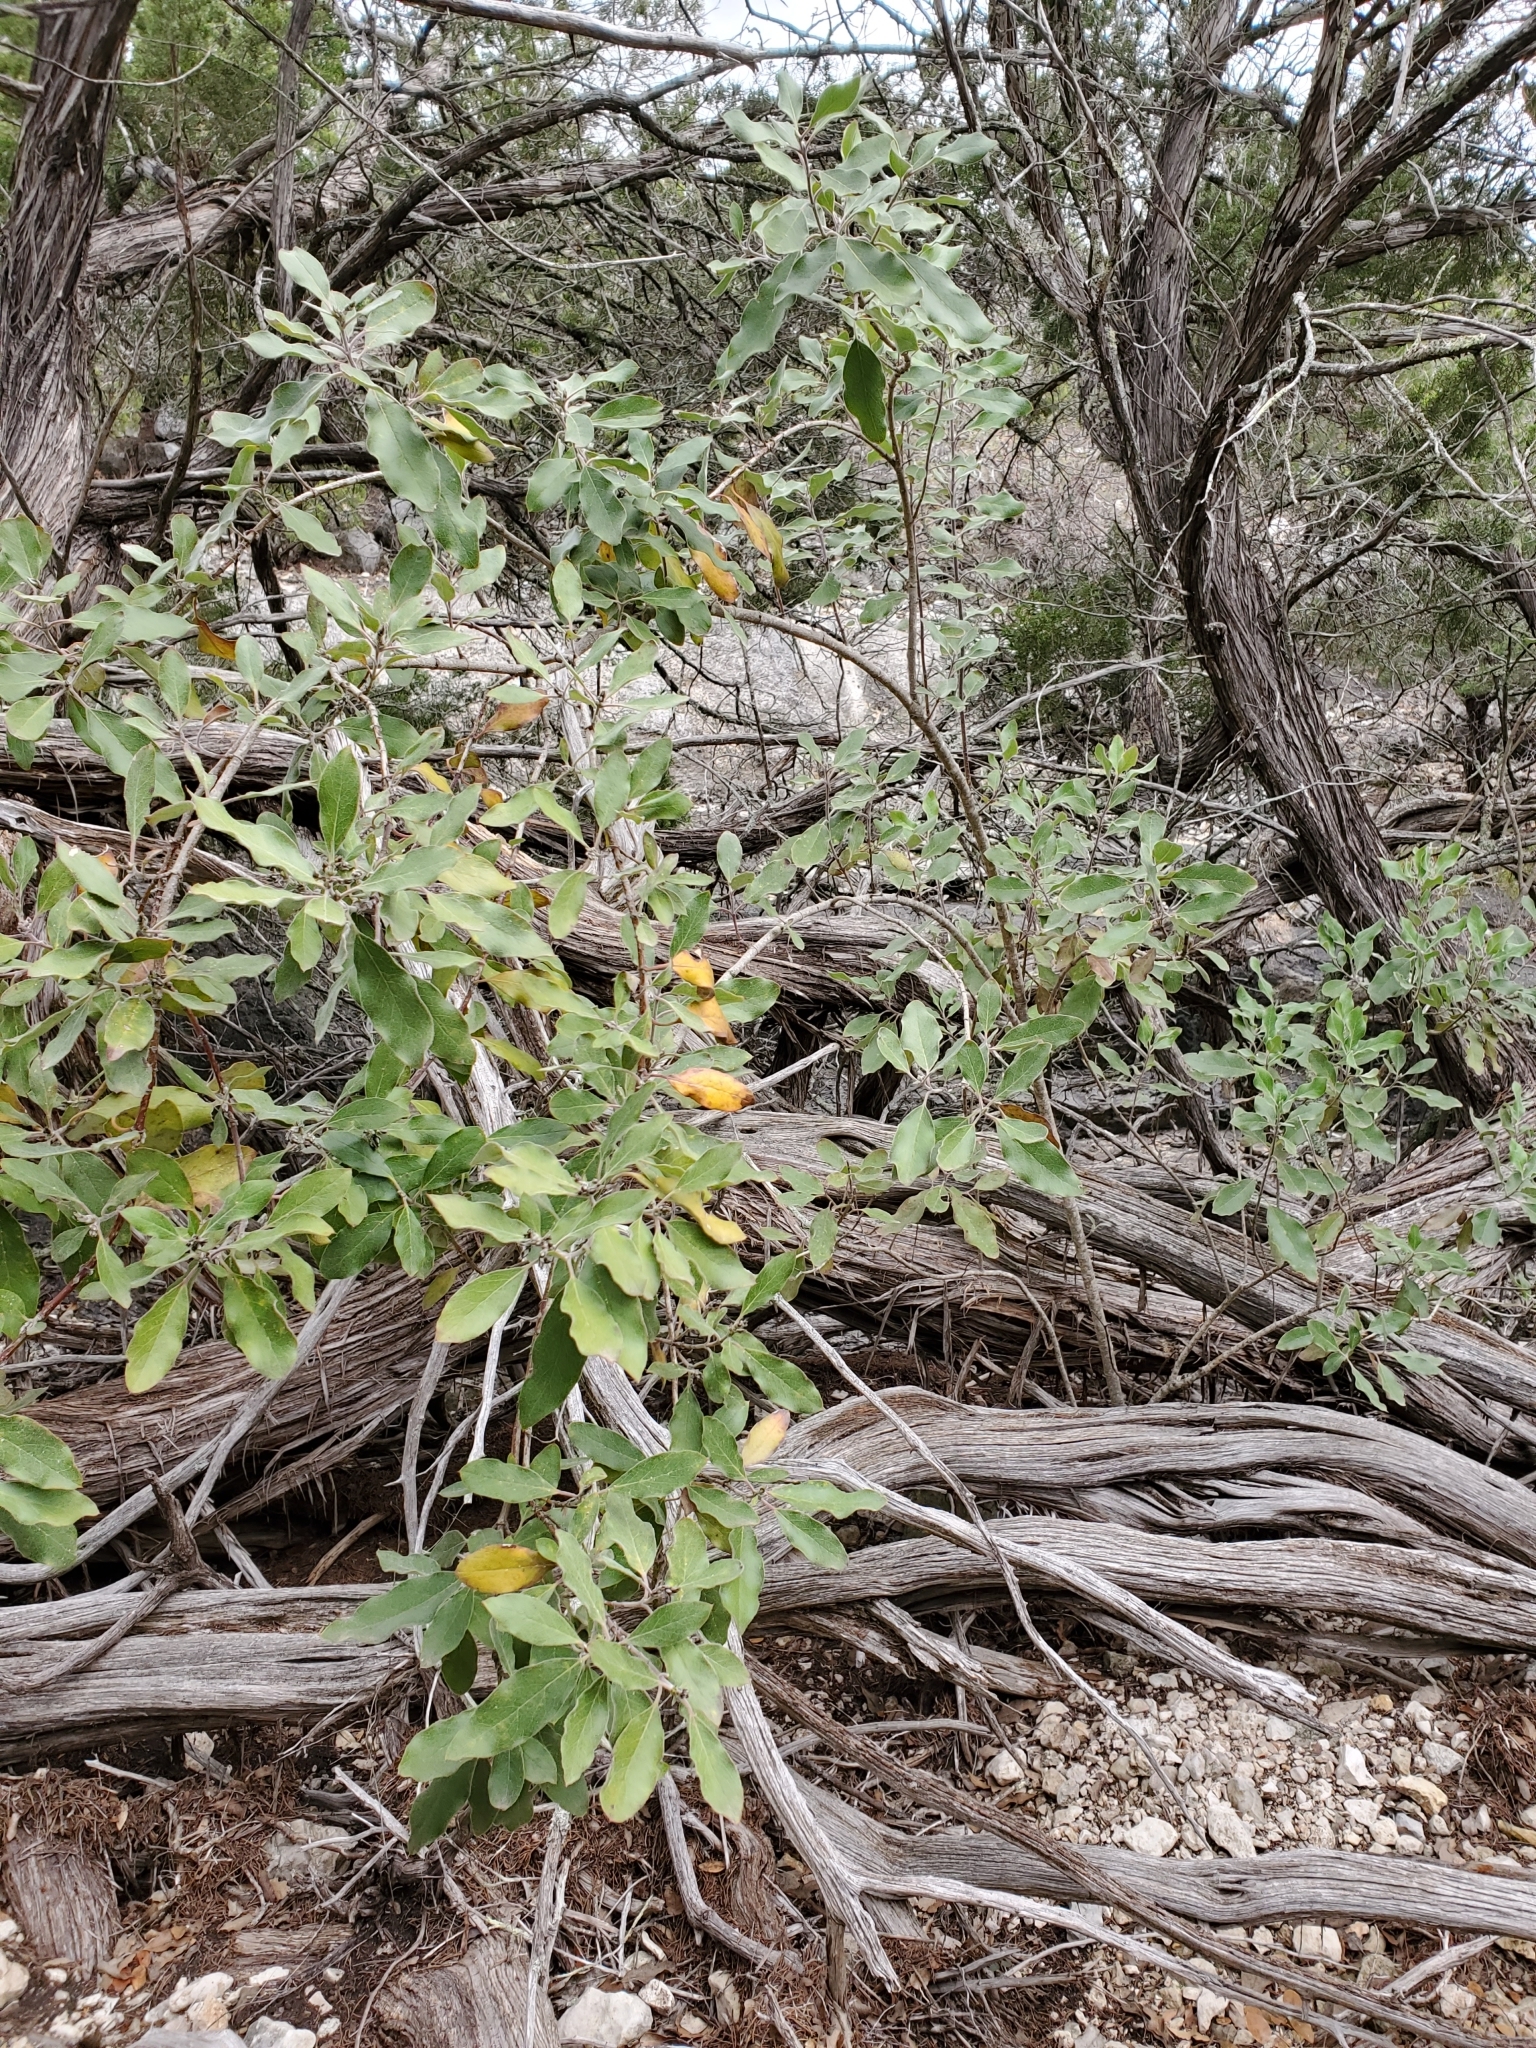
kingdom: Plantae
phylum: Tracheophyta
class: Magnoliopsida
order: Garryales
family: Garryaceae
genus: Garrya
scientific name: Garrya lindheimeri
